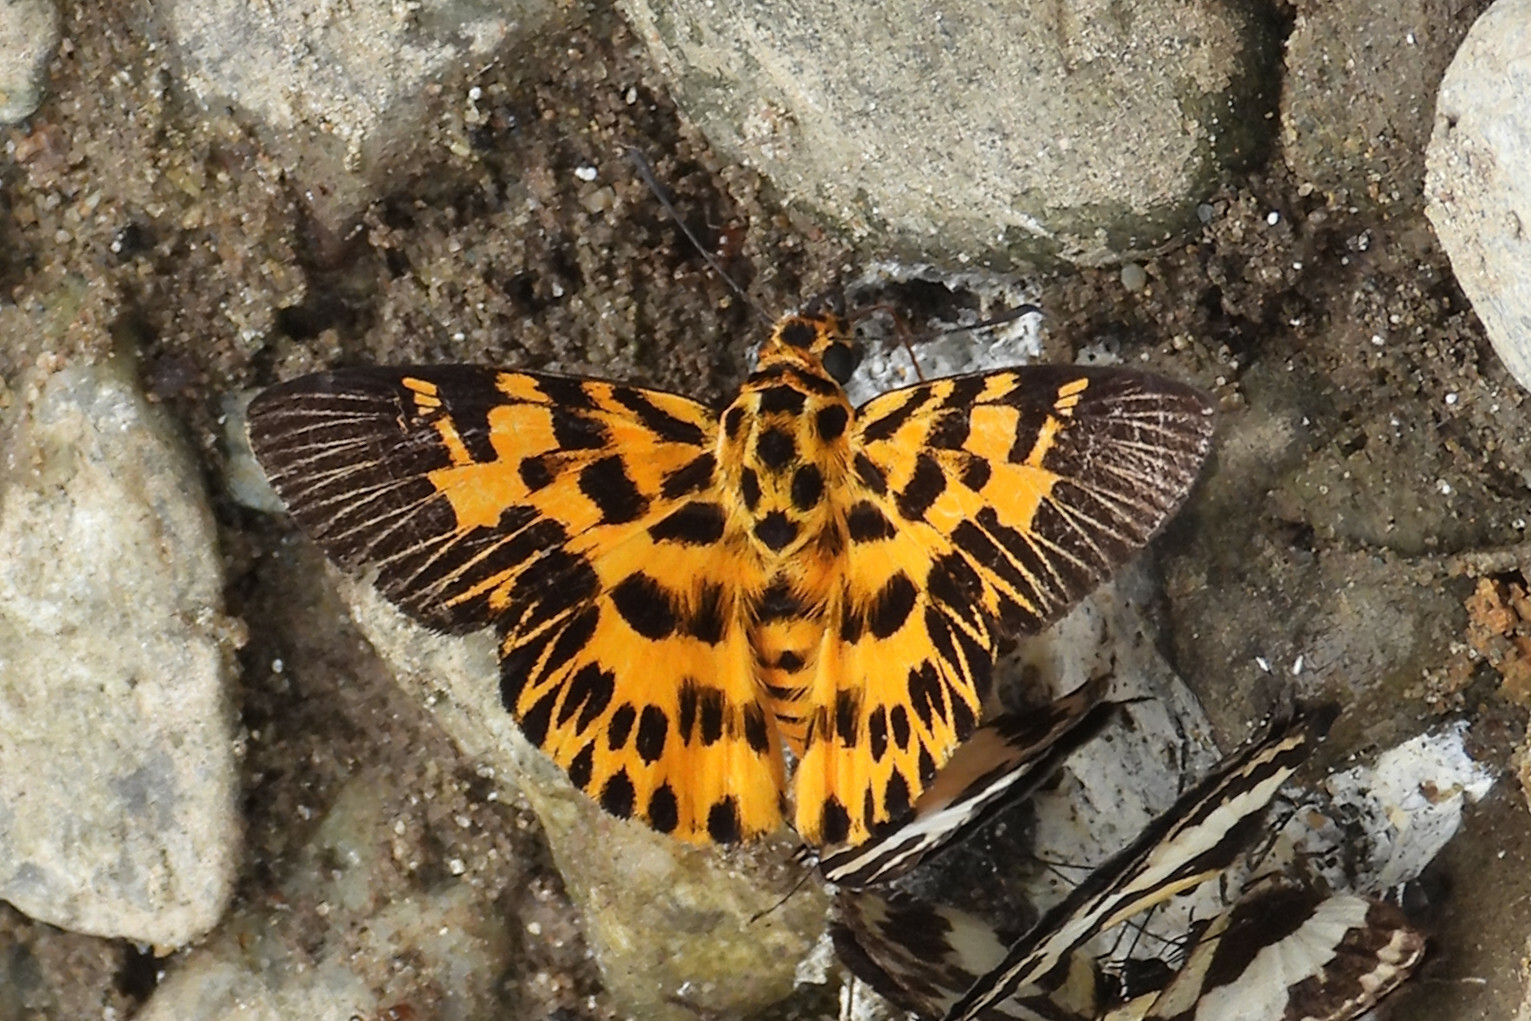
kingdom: Animalia
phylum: Arthropoda
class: Insecta
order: Lepidoptera
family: Hesperiidae
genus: Odina
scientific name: Odina decoratus
